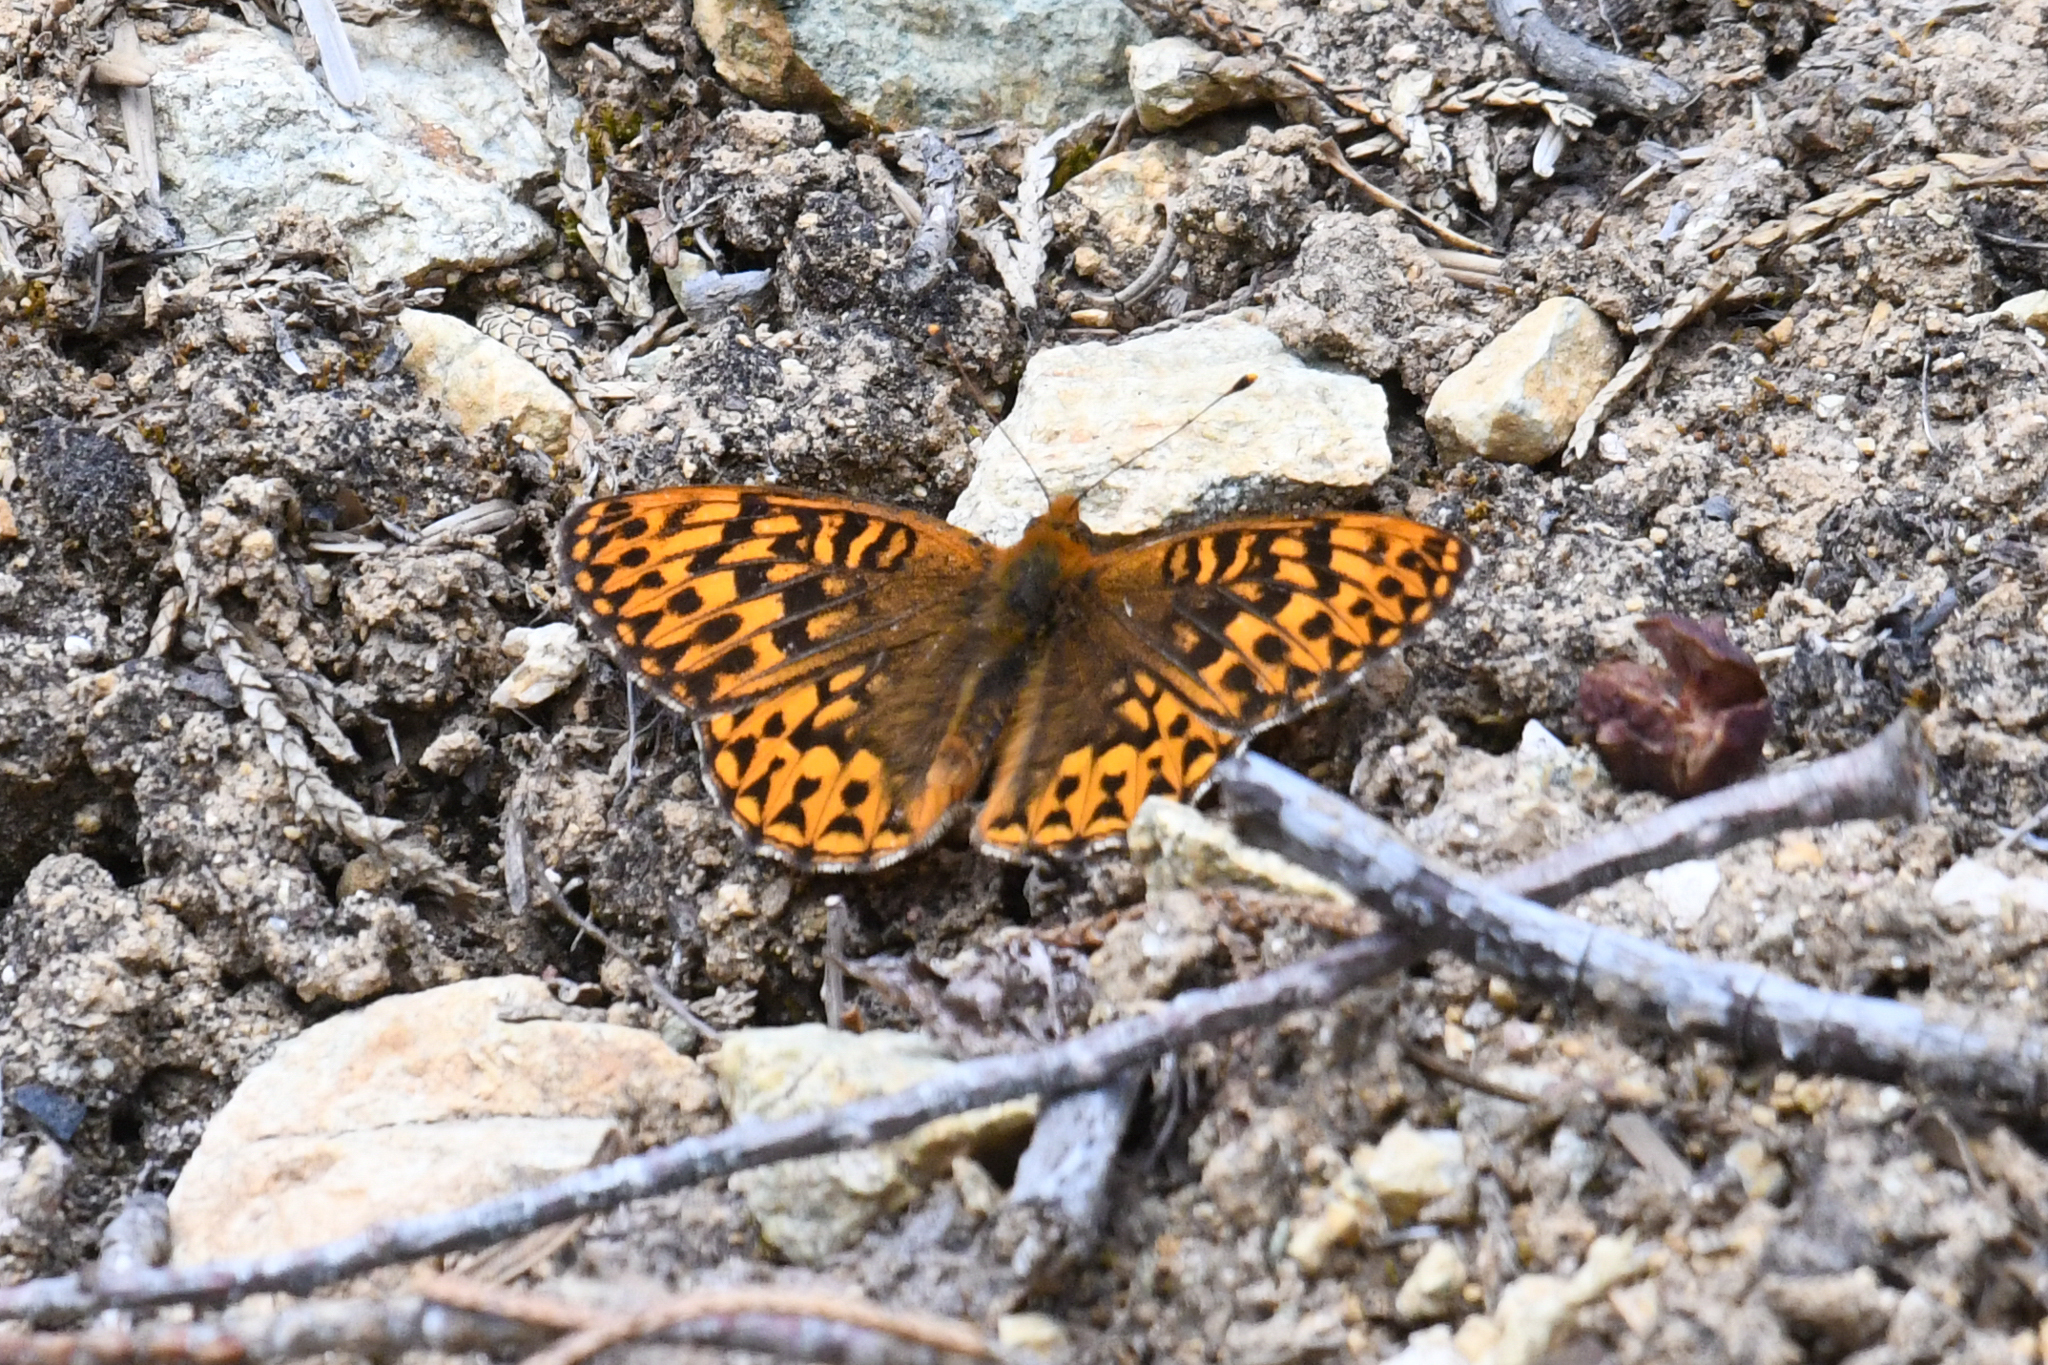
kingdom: Animalia
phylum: Arthropoda
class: Insecta
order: Lepidoptera
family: Nymphalidae
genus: Speyeria
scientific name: Speyeria hydaspe
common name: Hydaspe fritillary
